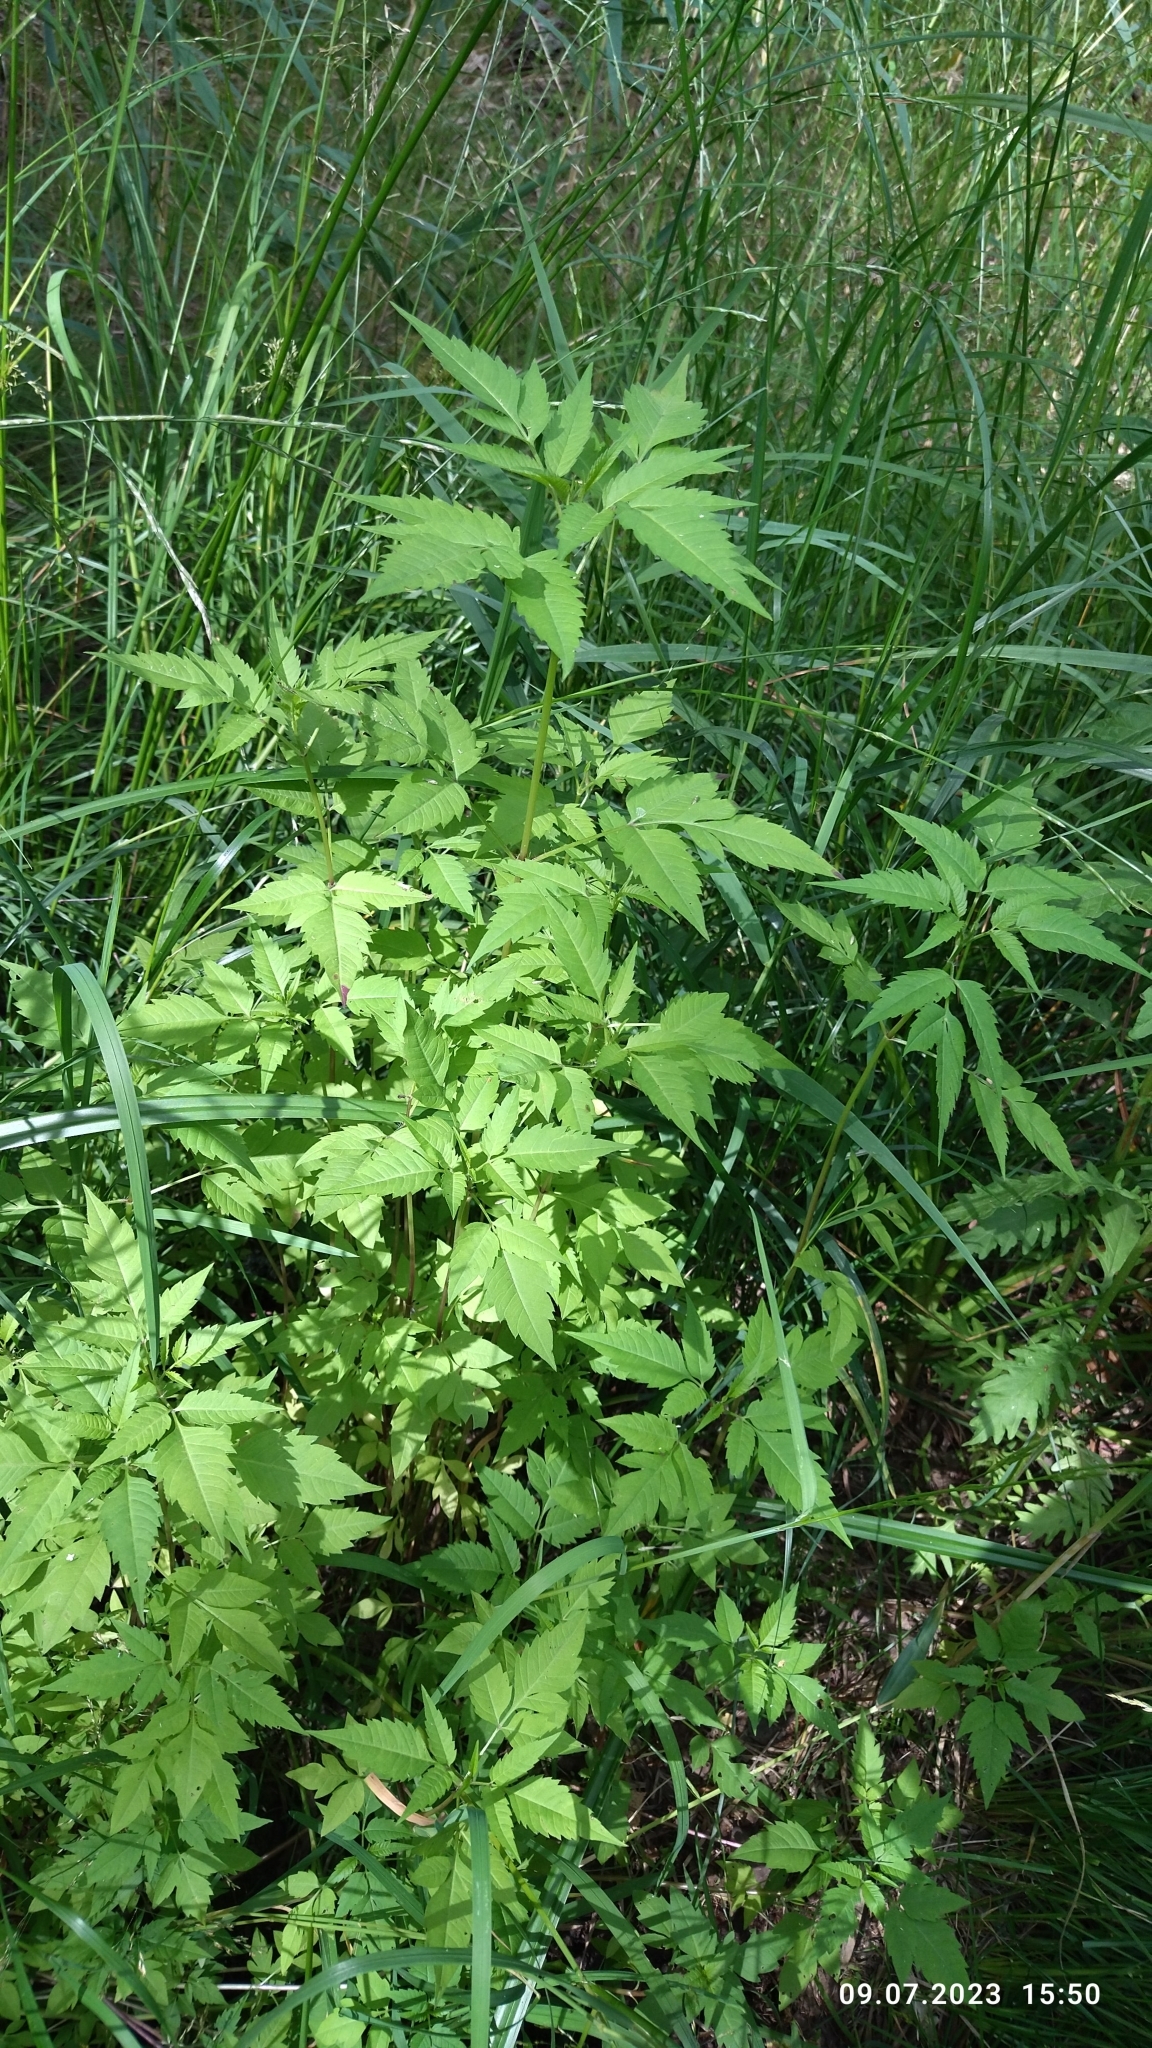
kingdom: Plantae
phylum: Tracheophyta
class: Magnoliopsida
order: Asterales
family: Asteraceae
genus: Bidens
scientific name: Bidens frondosa
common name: Beggarticks
